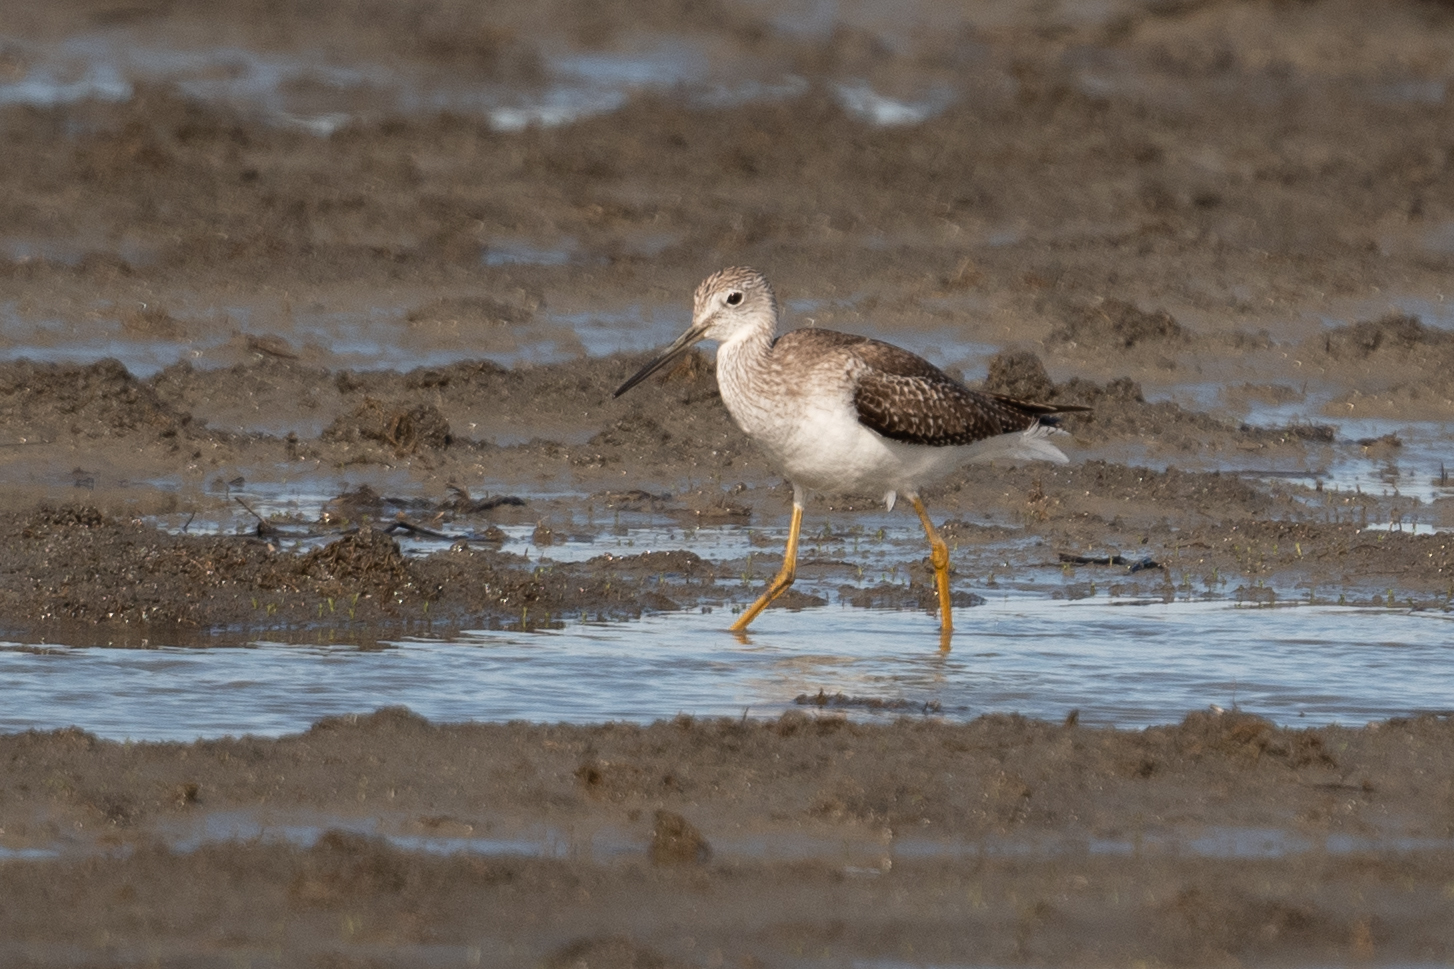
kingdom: Animalia
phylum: Chordata
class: Aves
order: Charadriiformes
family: Scolopacidae
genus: Tringa
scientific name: Tringa melanoleuca
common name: Greater yellowlegs
